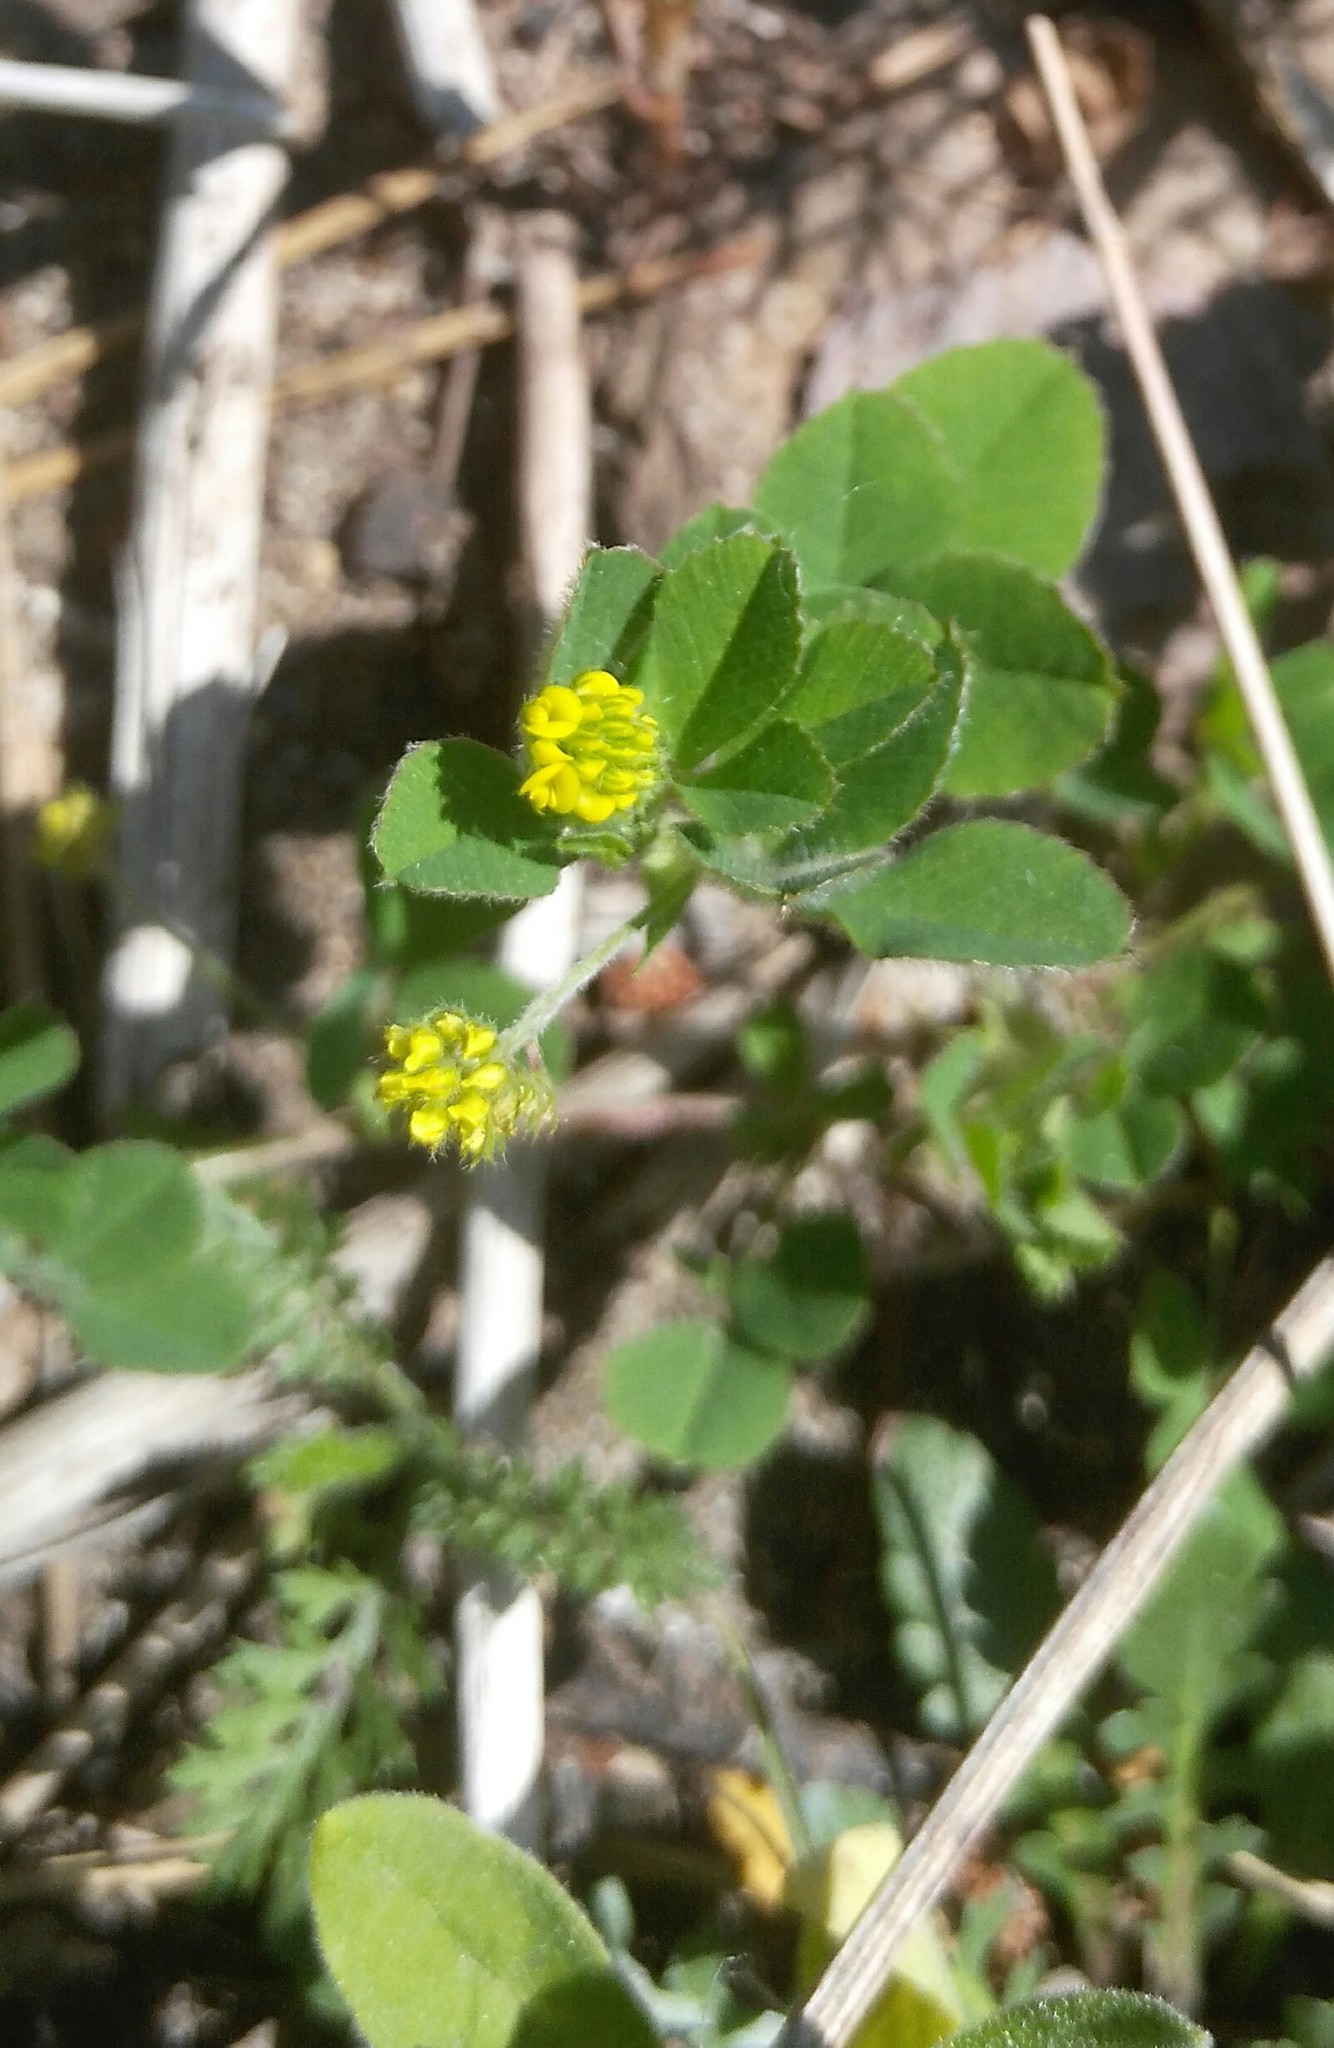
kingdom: Plantae
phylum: Tracheophyta
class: Magnoliopsida
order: Fabales
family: Fabaceae
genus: Medicago
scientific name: Medicago lupulina
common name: Black medick
